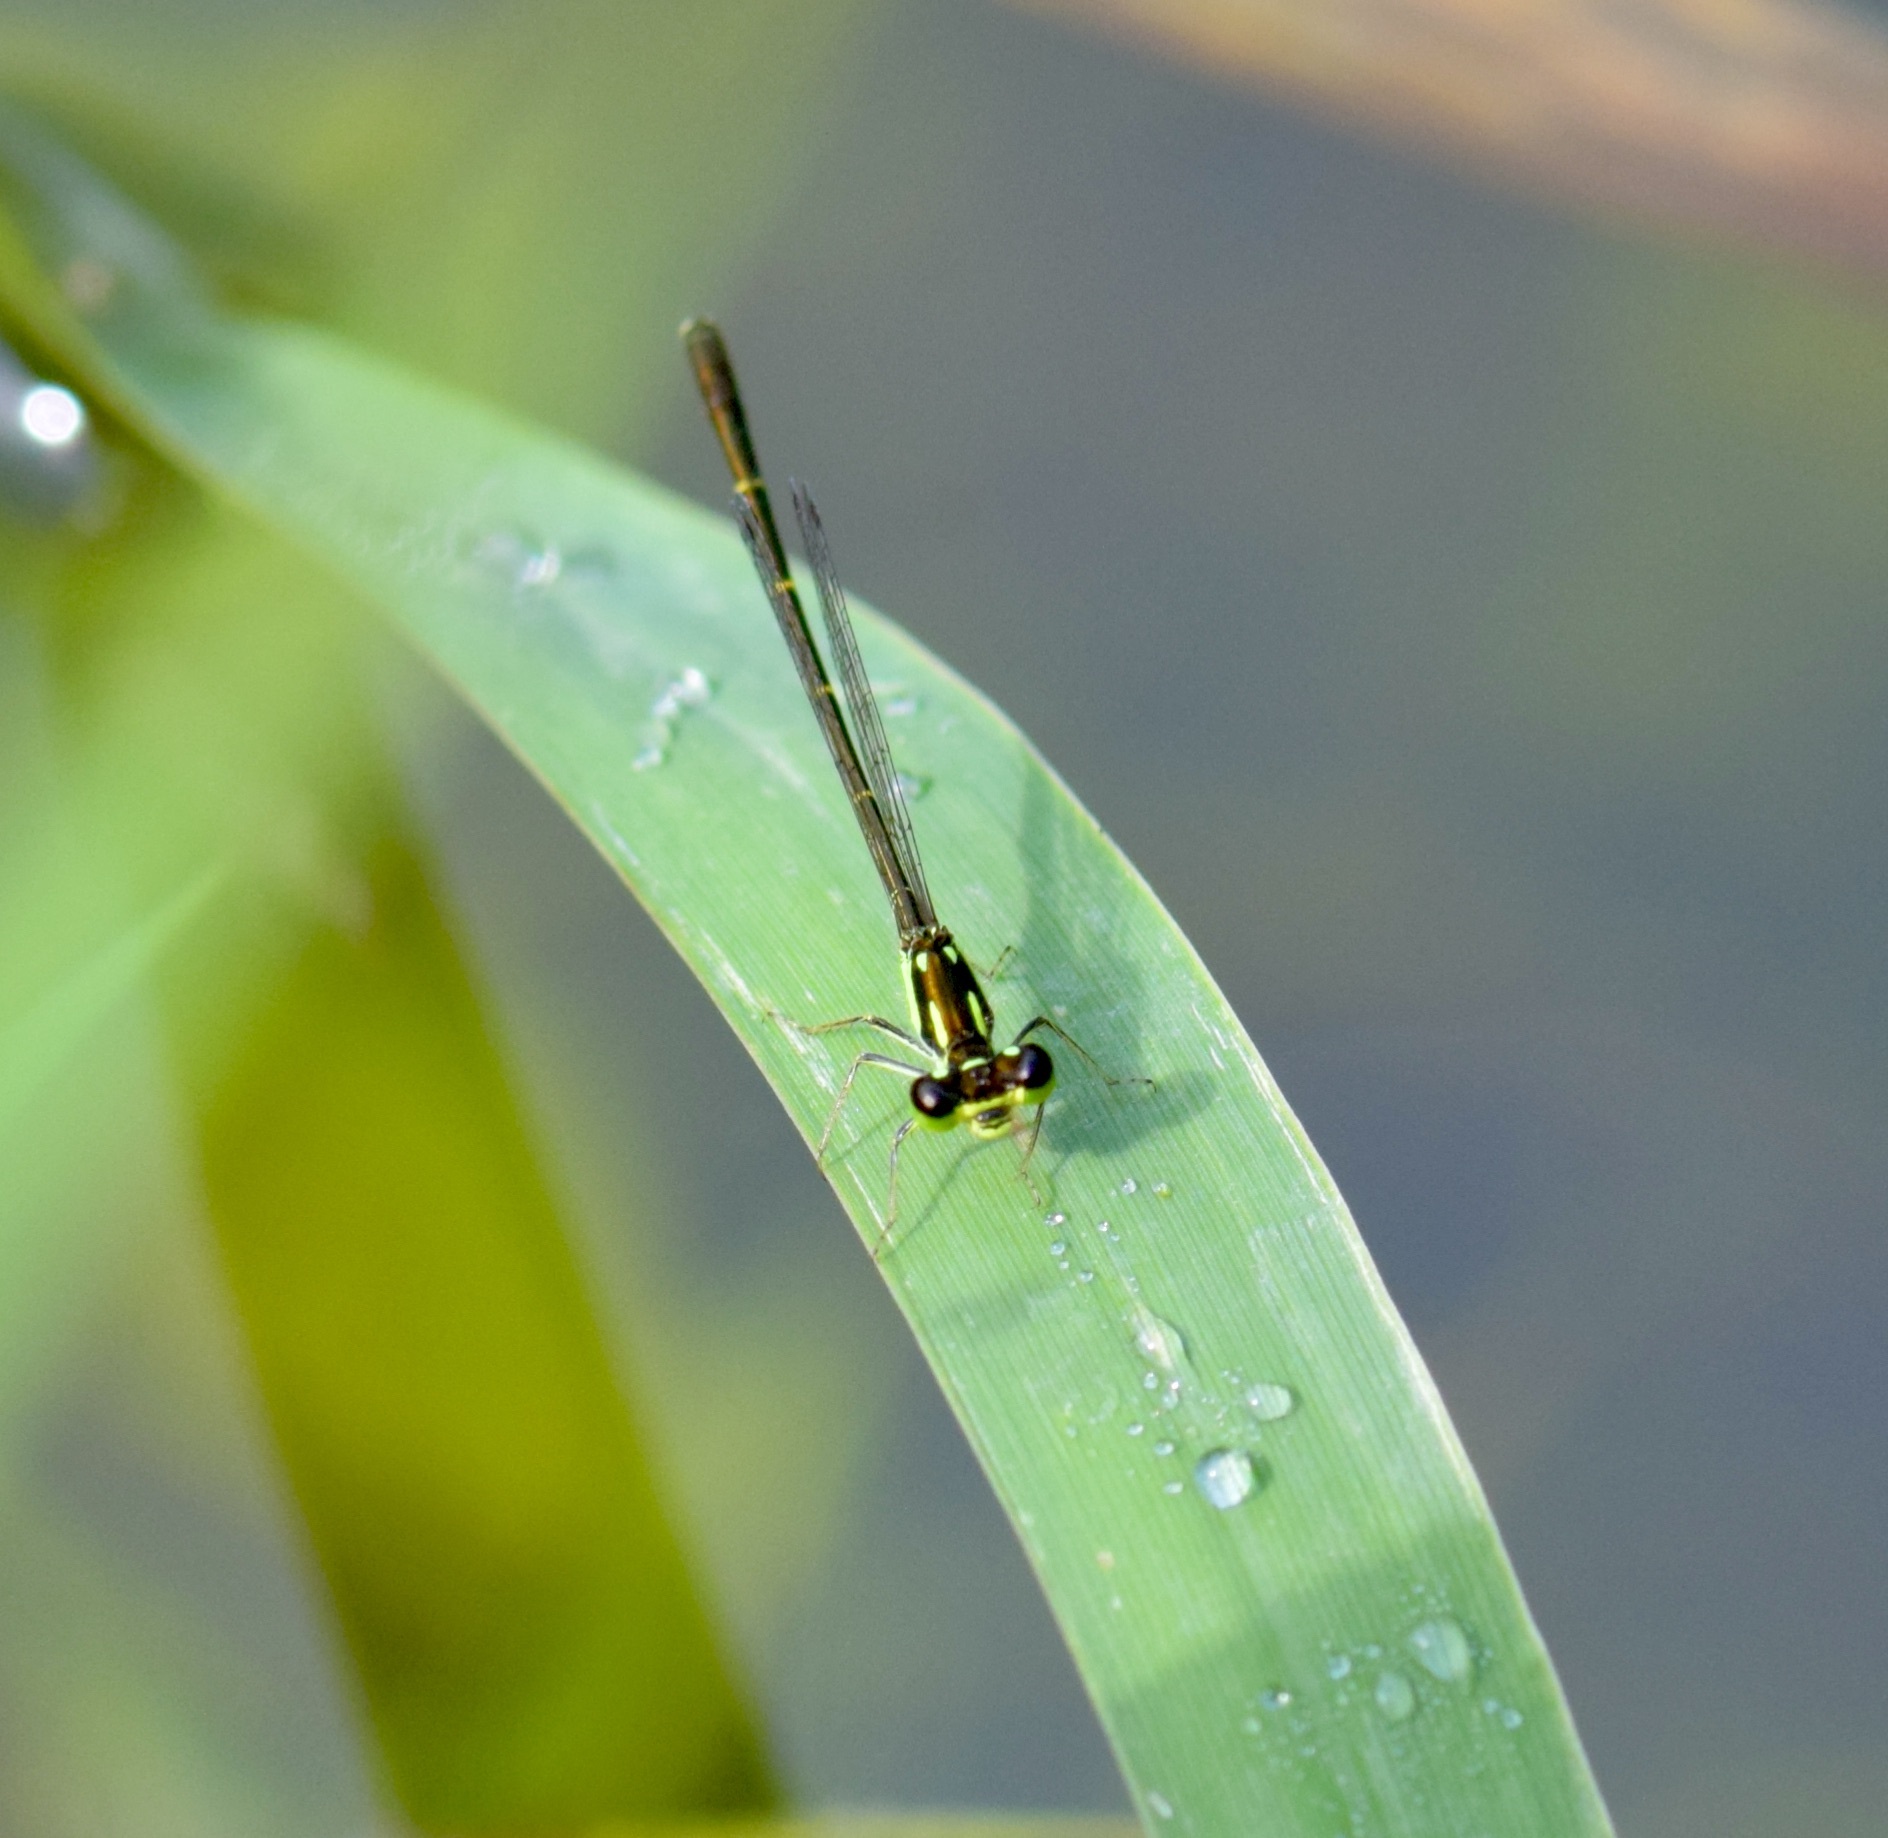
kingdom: Animalia
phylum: Arthropoda
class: Insecta
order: Odonata
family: Coenagrionidae
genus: Ischnura
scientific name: Ischnura posita
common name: Fragile forktail
